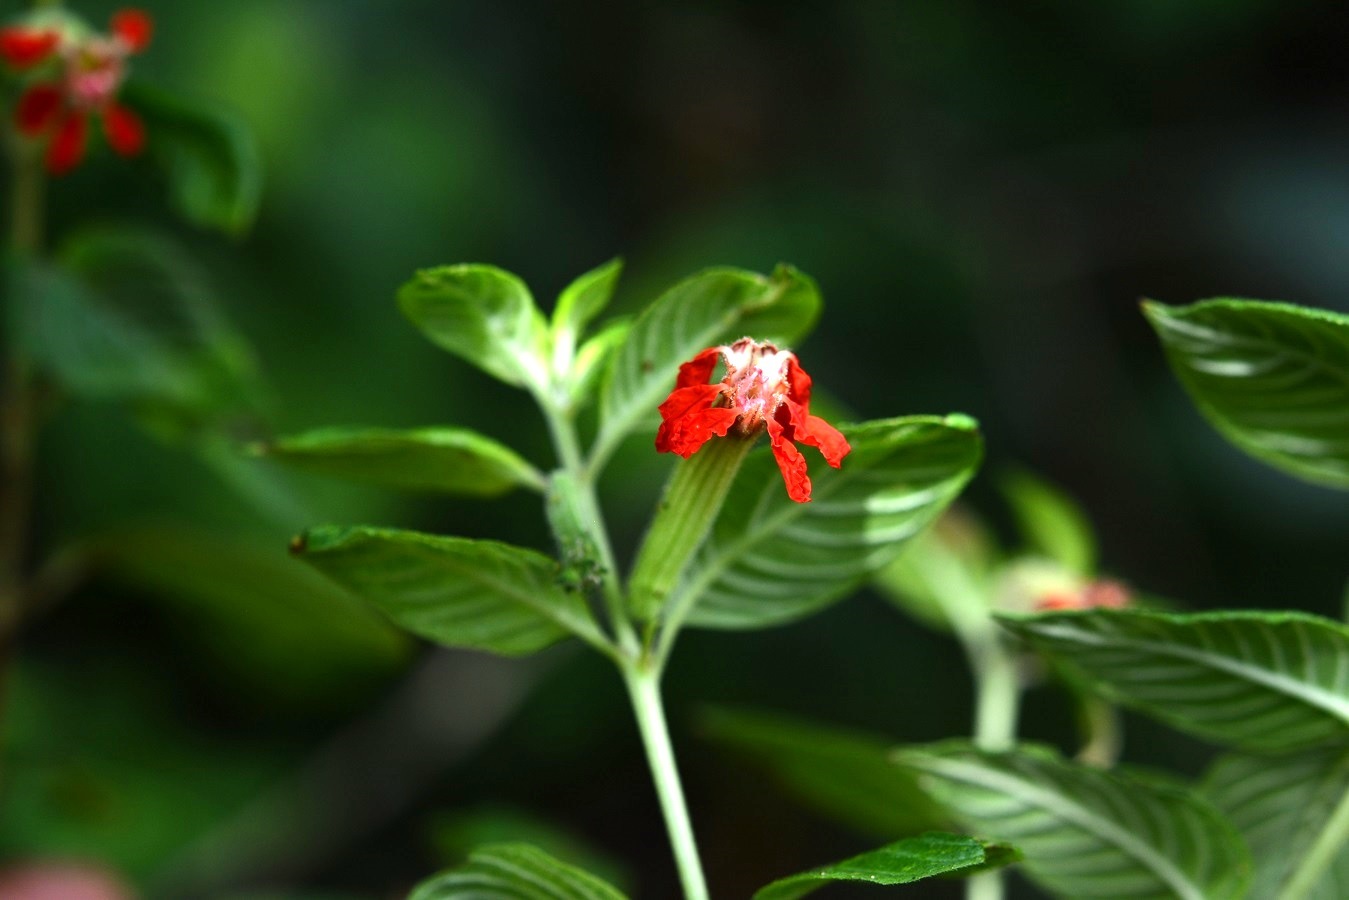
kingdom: Plantae
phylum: Tracheophyta
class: Magnoliopsida
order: Myrtales
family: Lythraceae
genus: Cuphea
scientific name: Cuphea intermedia
